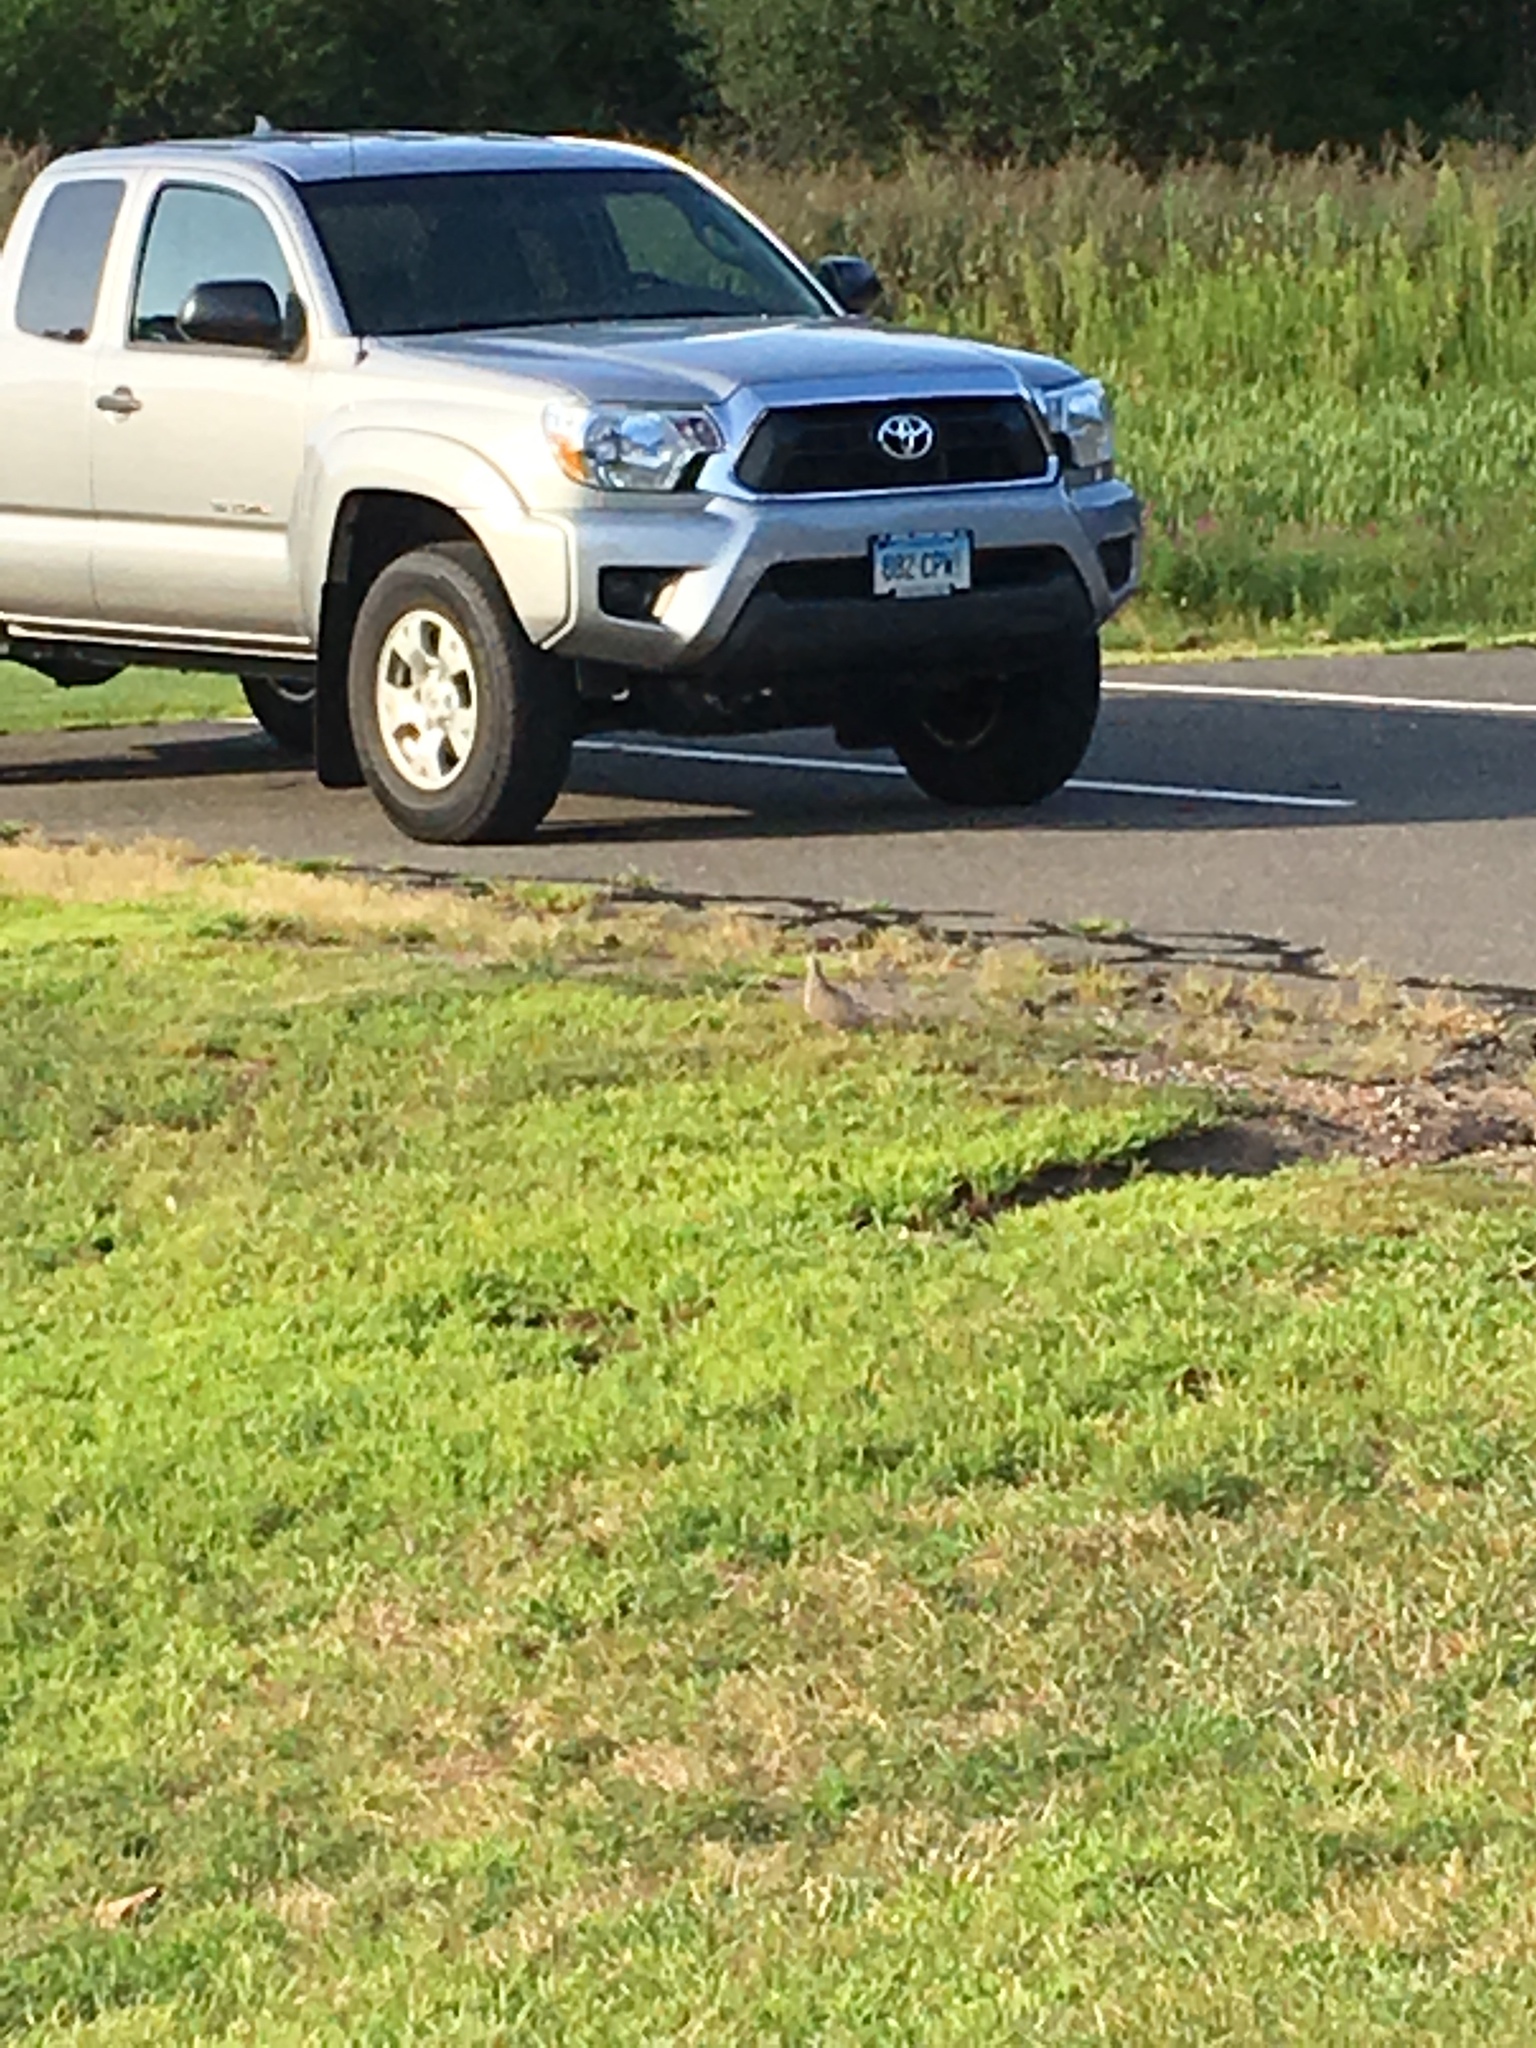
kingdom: Animalia
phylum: Chordata
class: Aves
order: Columbiformes
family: Columbidae
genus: Zenaida
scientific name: Zenaida macroura
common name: Mourning dove
